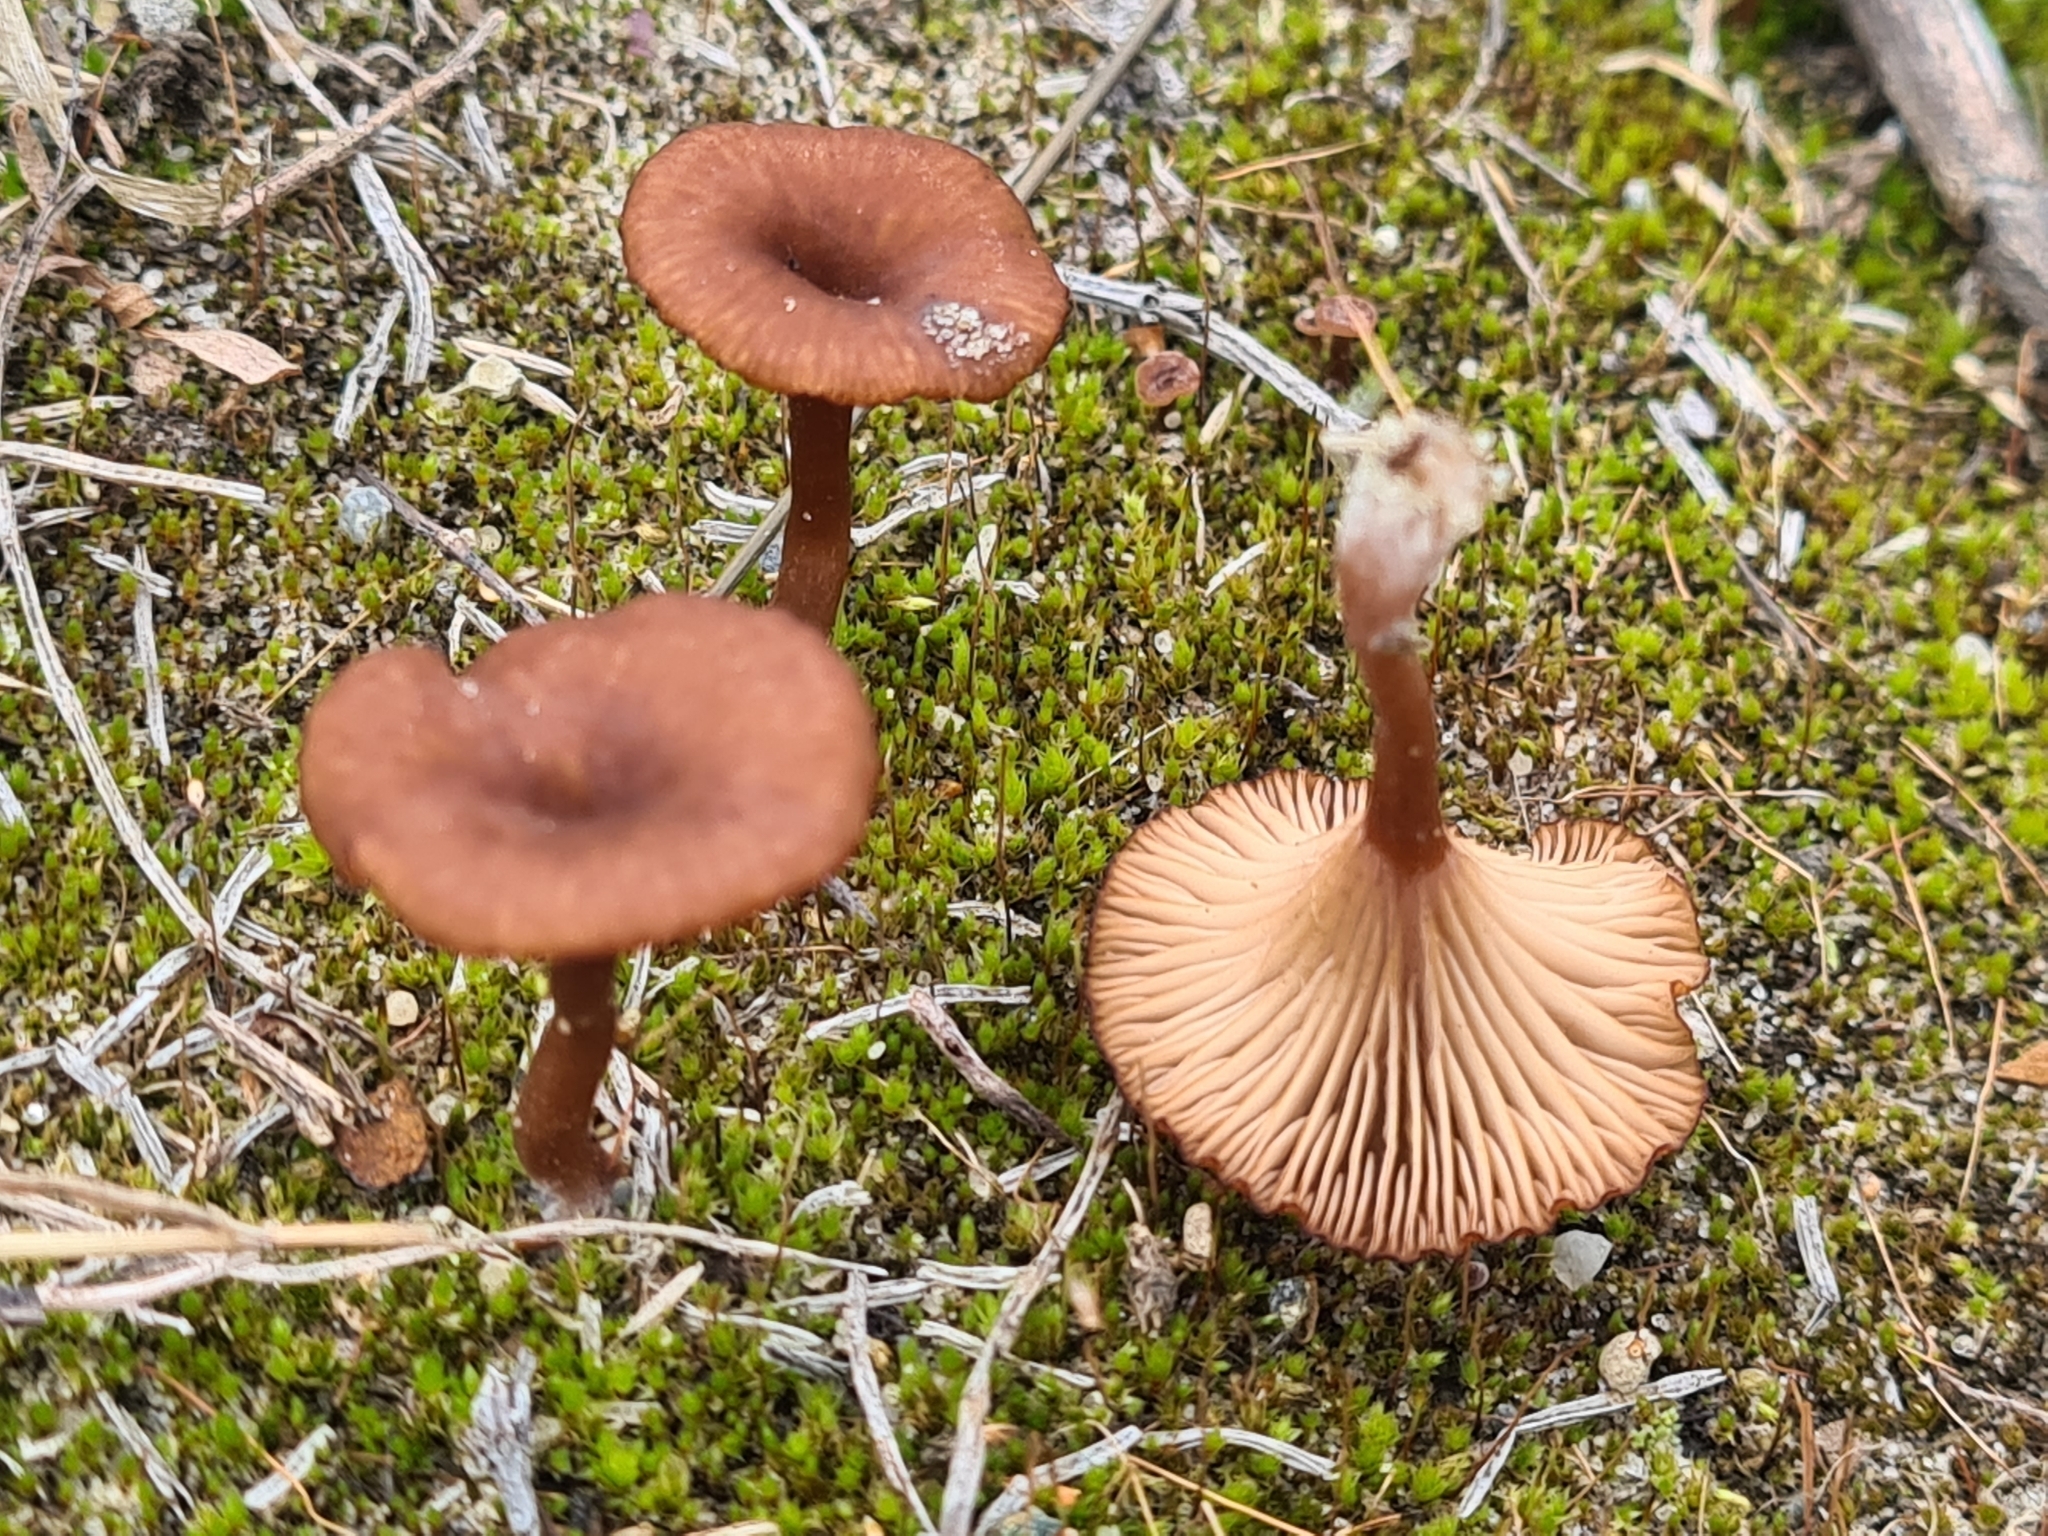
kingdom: Fungi
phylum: Basidiomycota
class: Agaricomycetes
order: Agaricales
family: Tricholomataceae
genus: Omphalina
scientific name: Omphalina pyxidata
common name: Cinnamon navel
